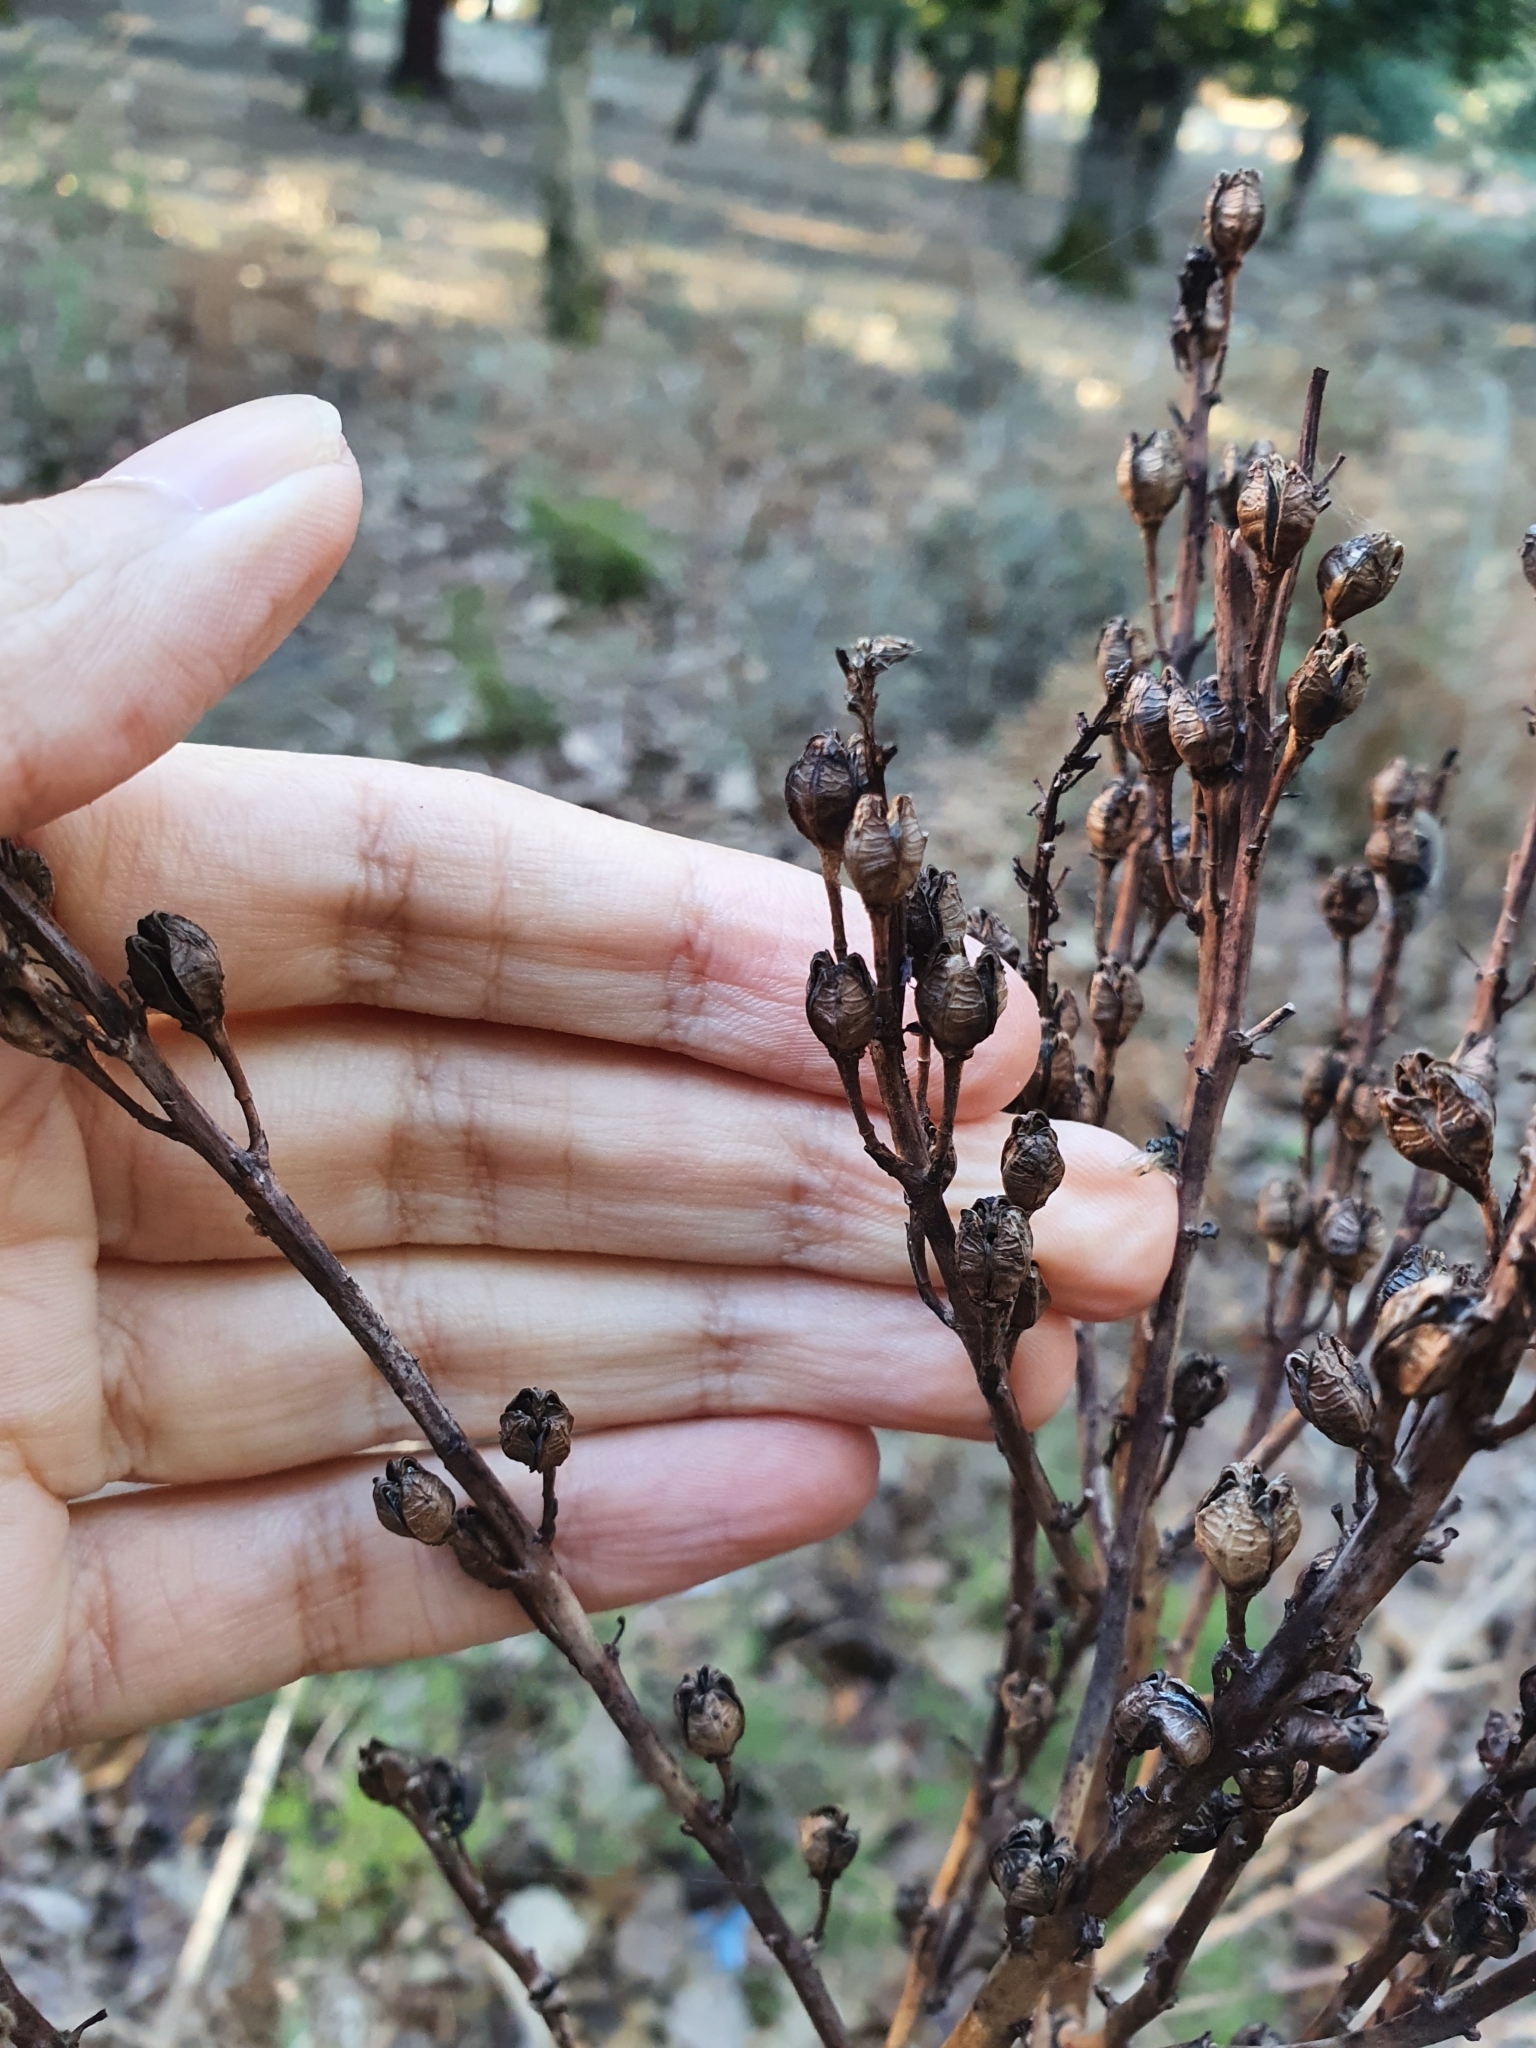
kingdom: Plantae
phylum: Tracheophyta
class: Liliopsida
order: Asparagales
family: Asphodelaceae
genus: Asphodelus
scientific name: Asphodelus ramosus
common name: Silverrod
